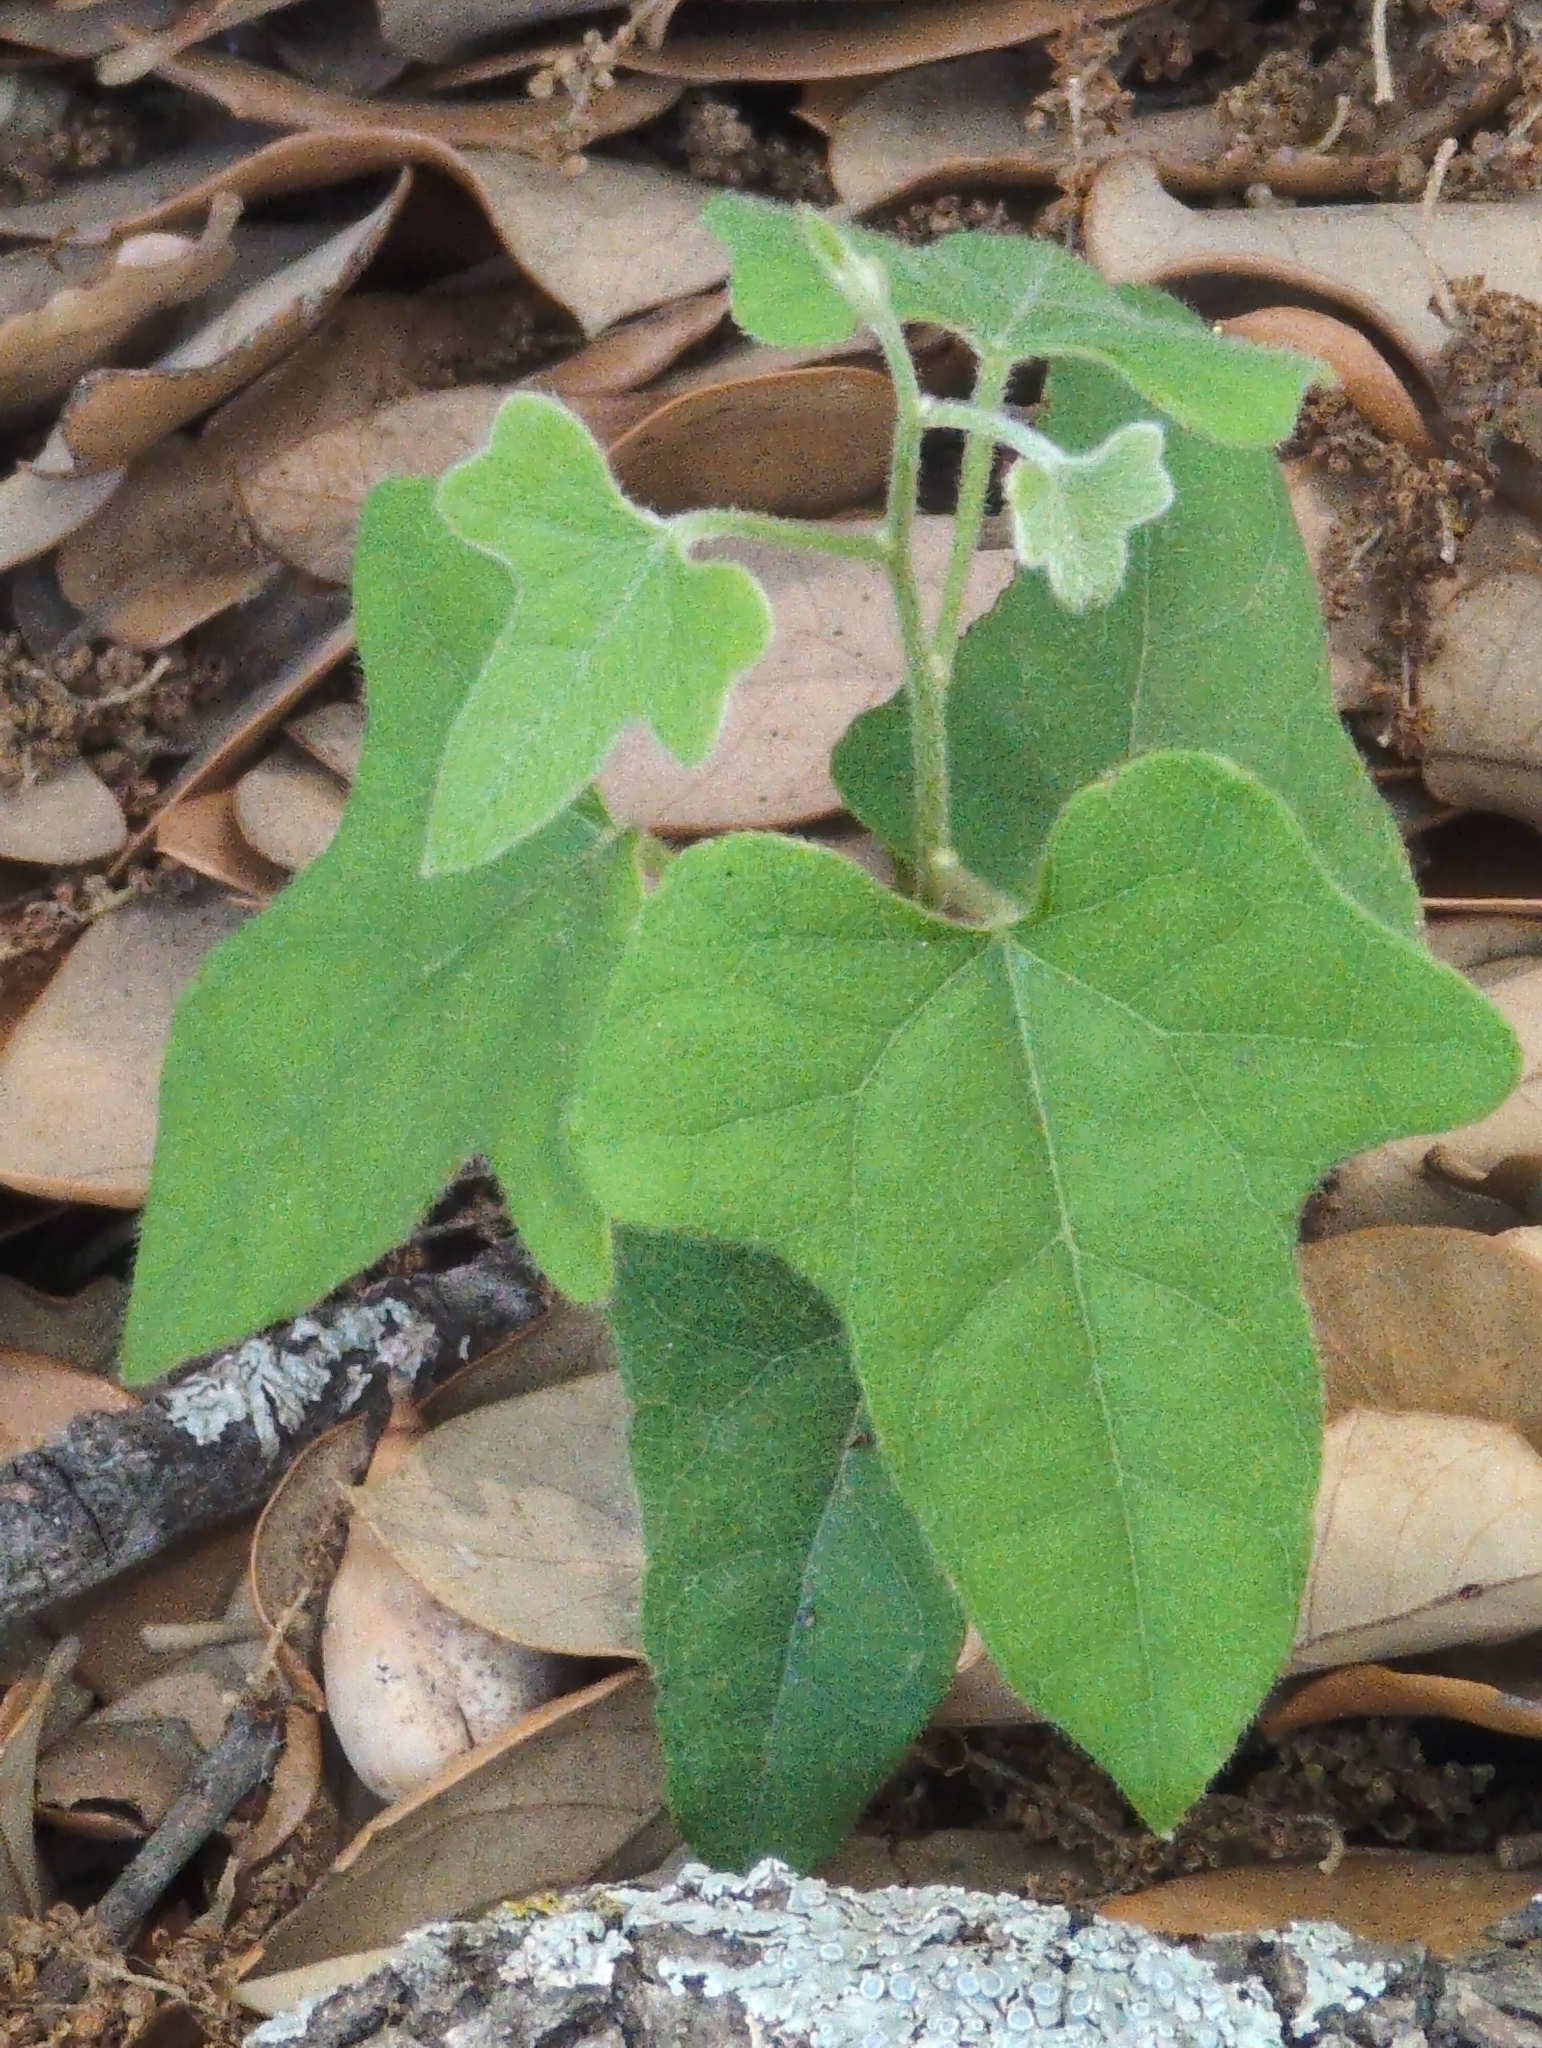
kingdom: Plantae
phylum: Tracheophyta
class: Magnoliopsida
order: Ranunculales
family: Menispermaceae
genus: Cocculus
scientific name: Cocculus carolinus
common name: Carolina moonseed
